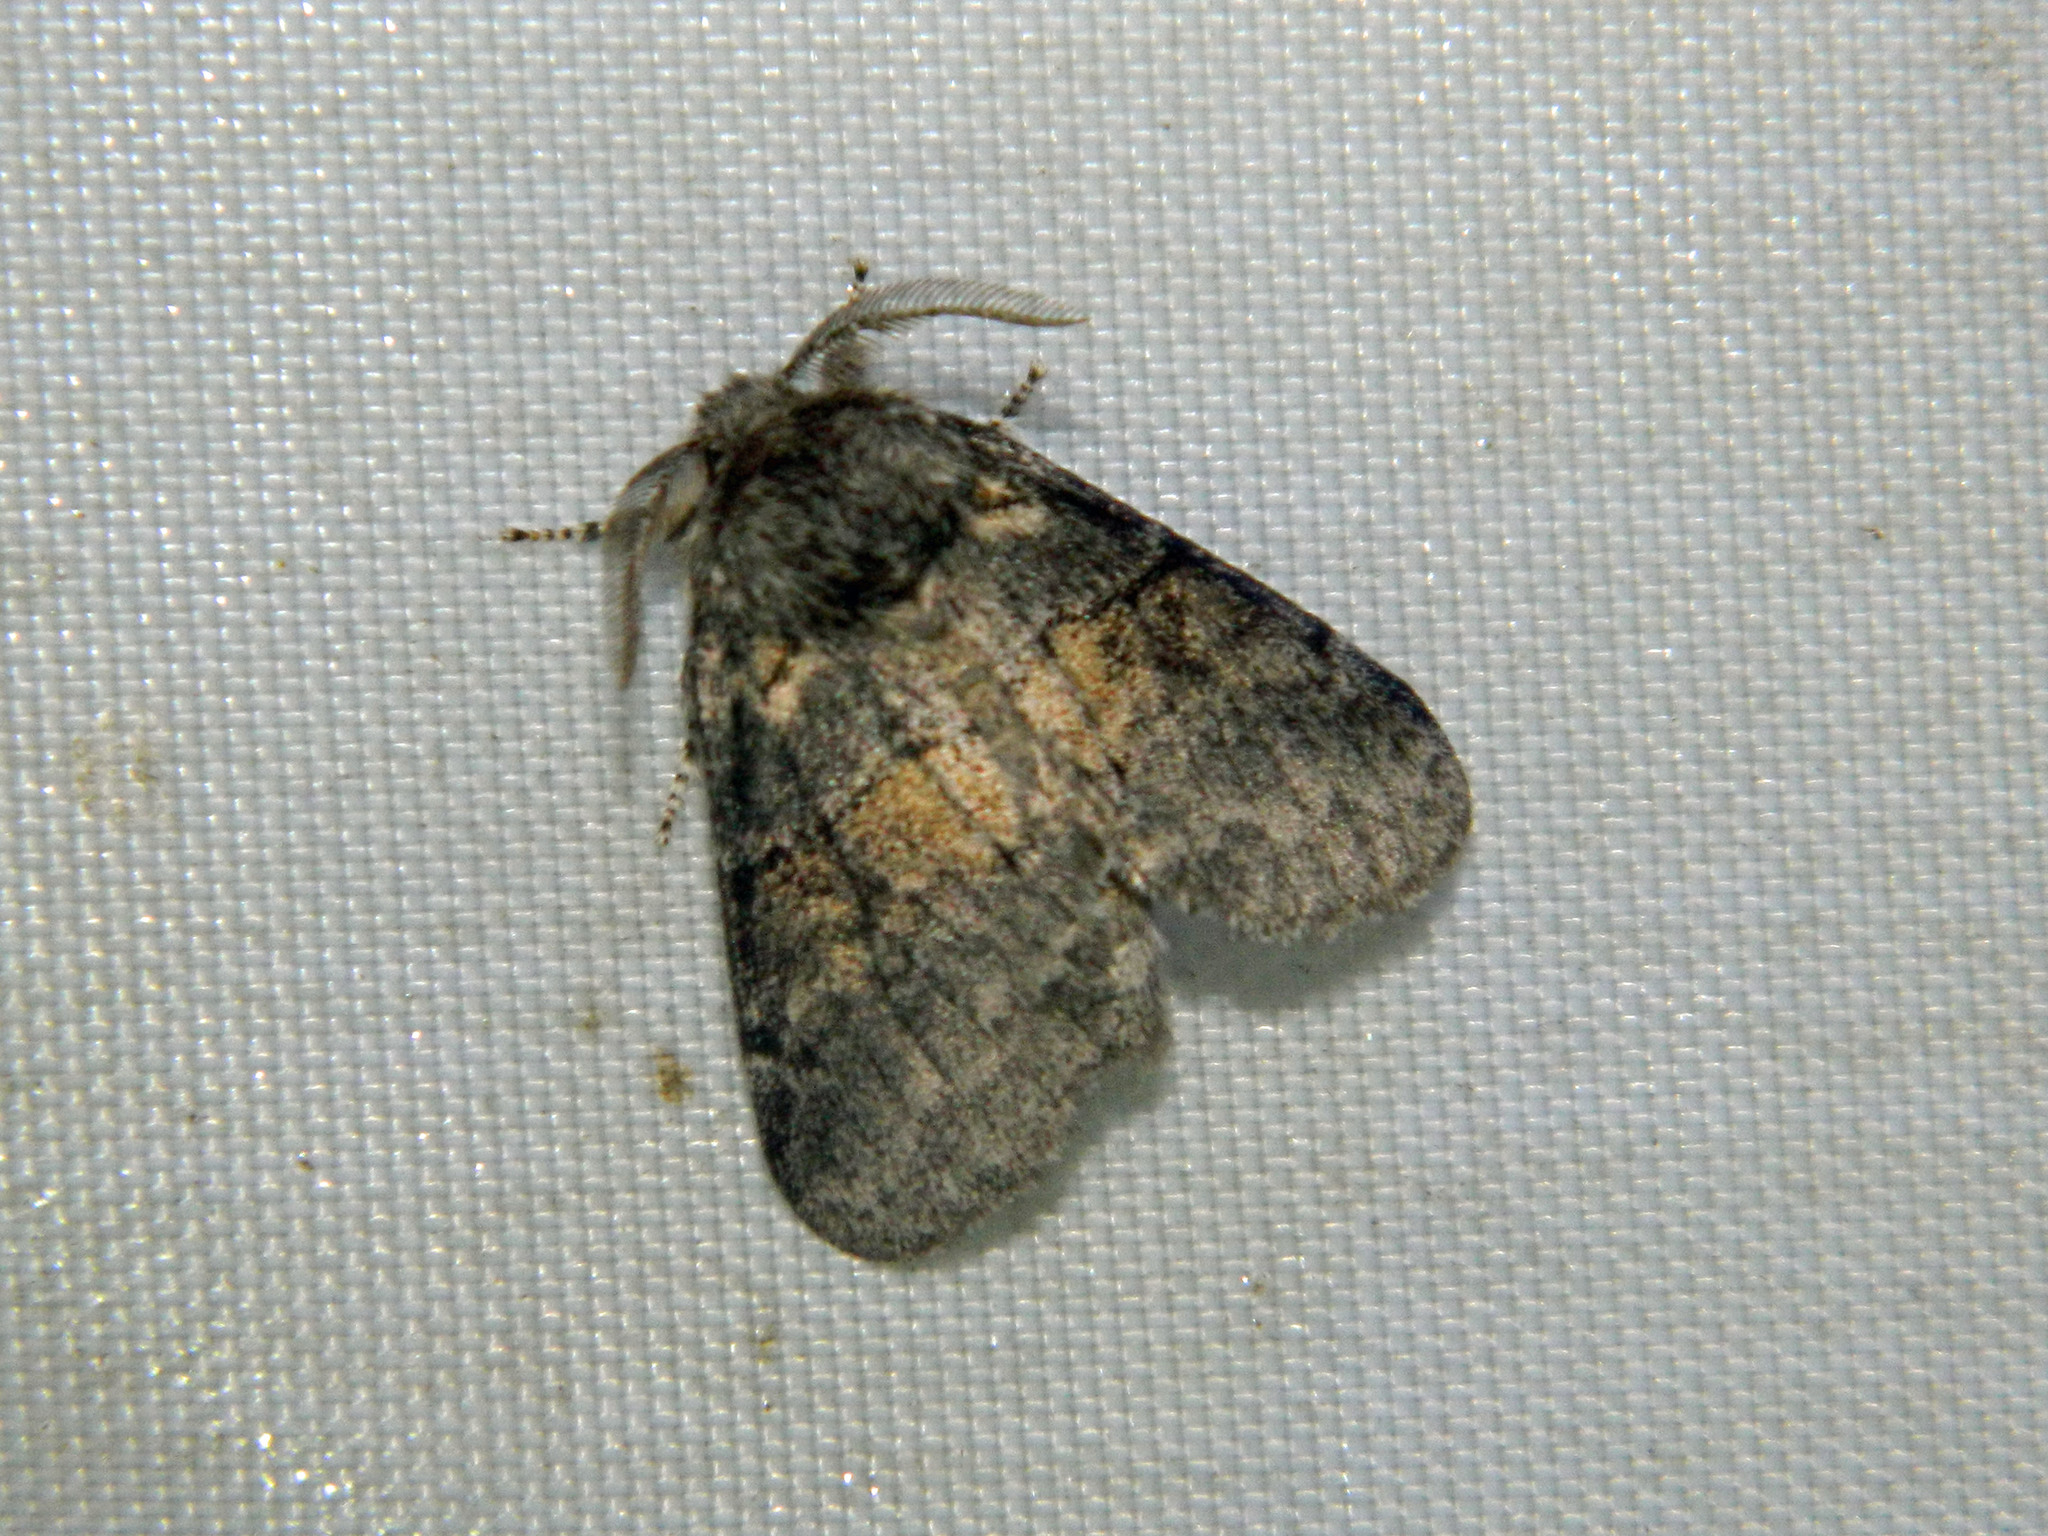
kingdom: Animalia
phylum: Arthropoda
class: Insecta
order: Lepidoptera
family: Notodontidae
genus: Gluphisia
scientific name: Gluphisia septentrionis
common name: Common gluphisia
